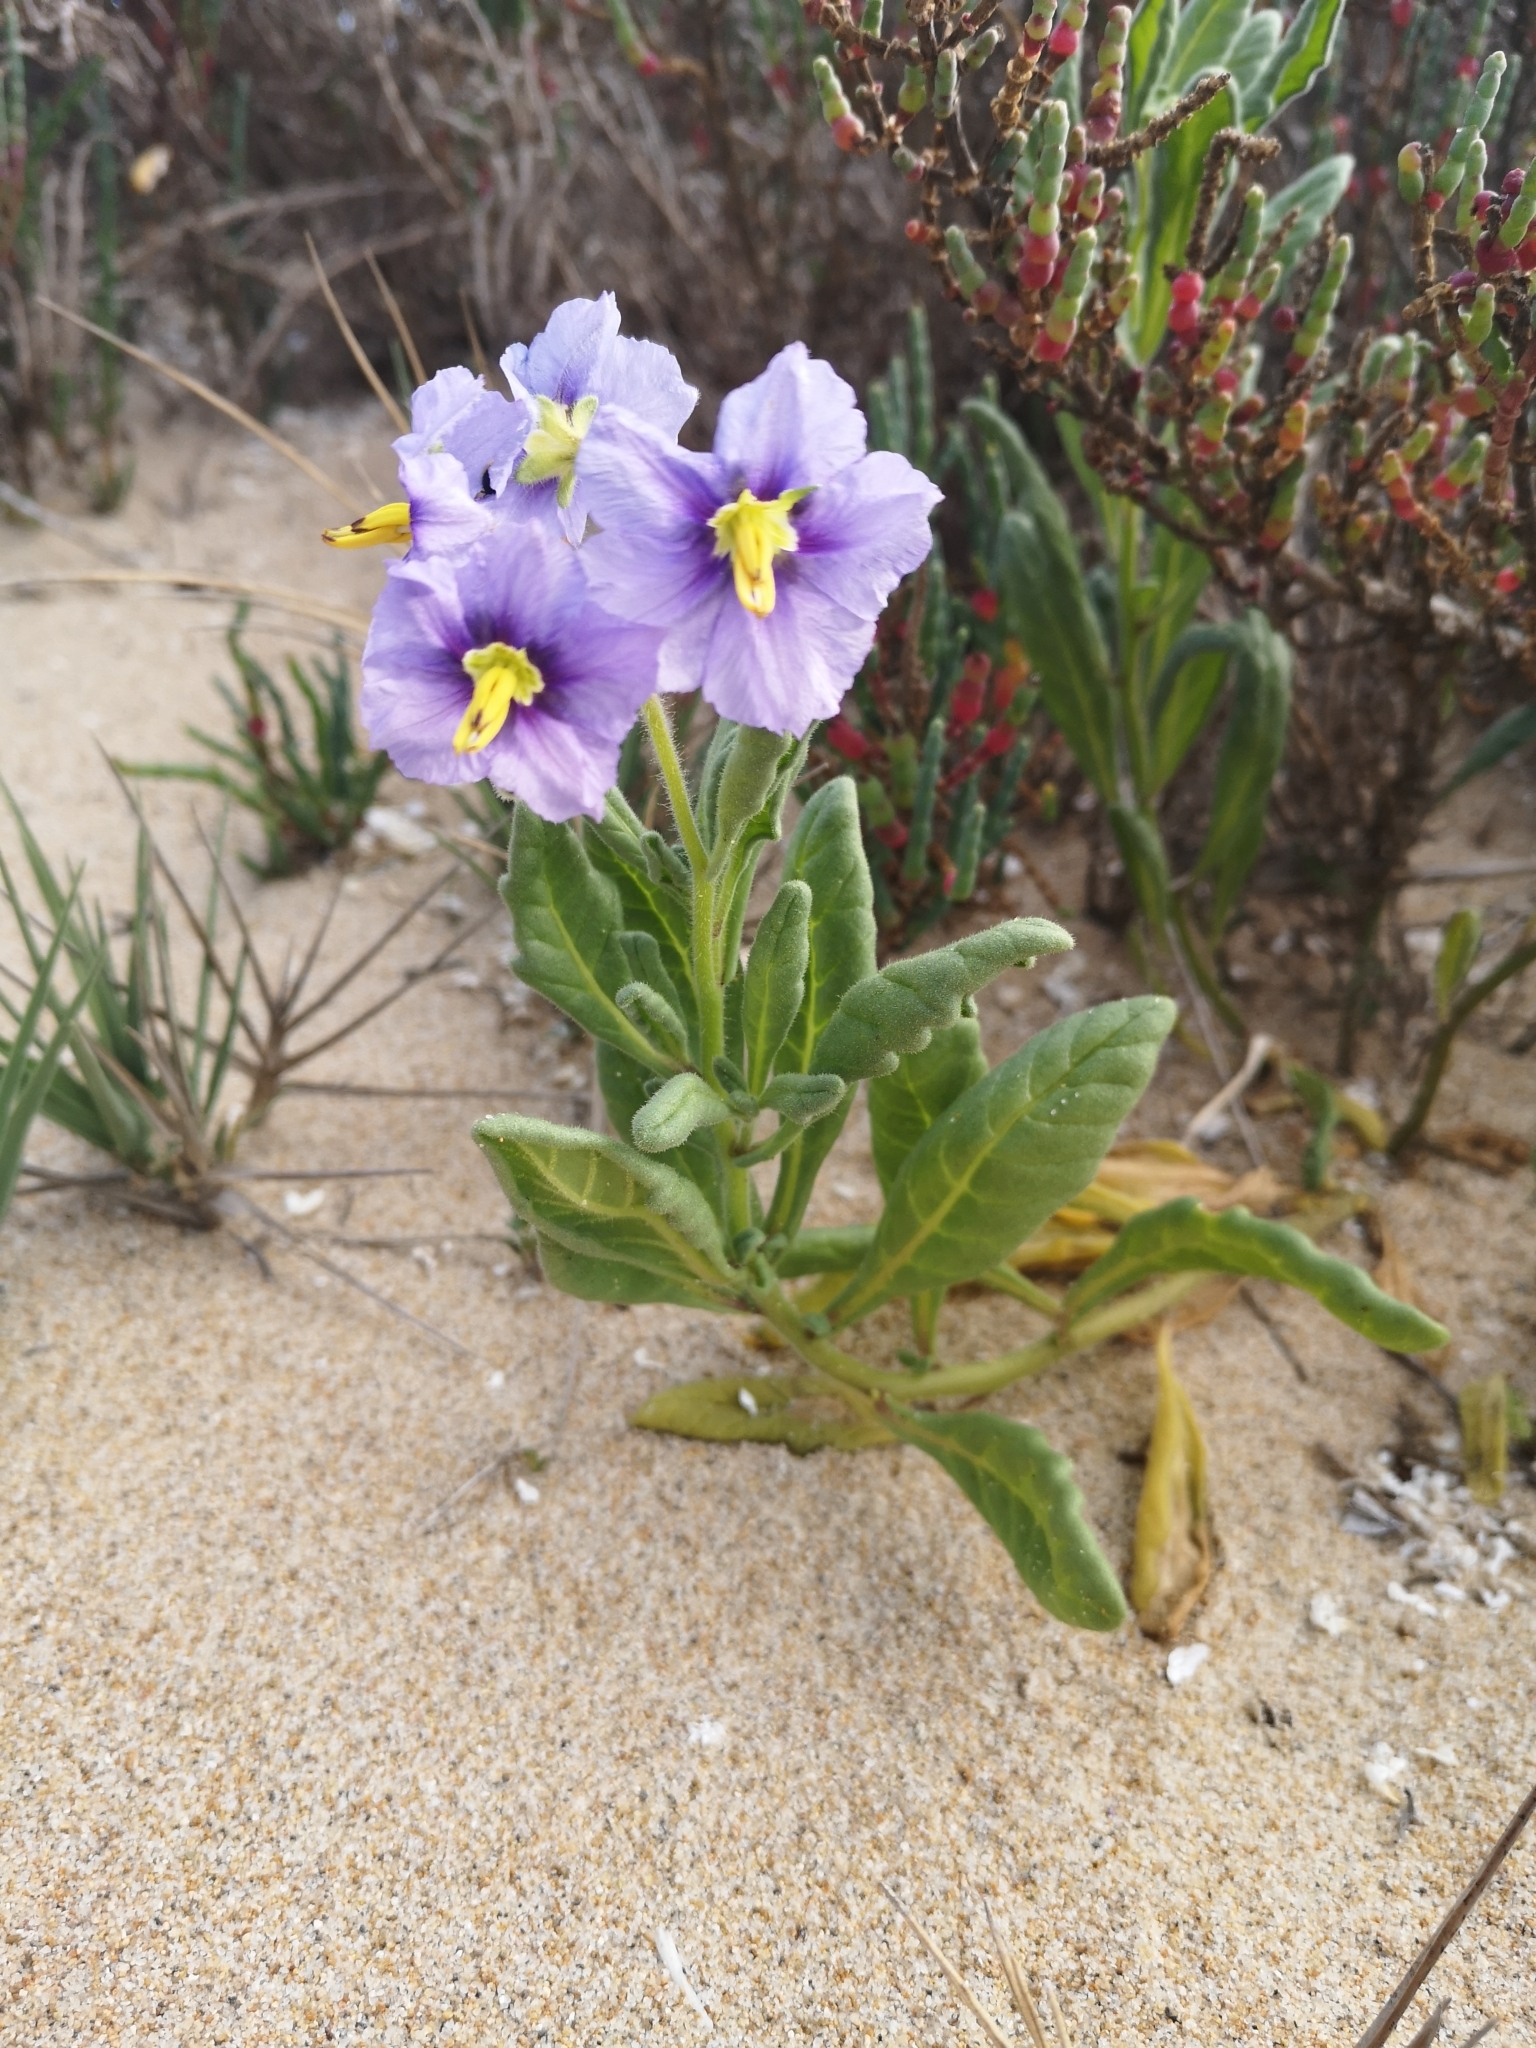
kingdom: Plantae
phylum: Tracheophyta
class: Magnoliopsida
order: Solanales
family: Solanaceae
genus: Solanum
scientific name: Solanum indivisum
